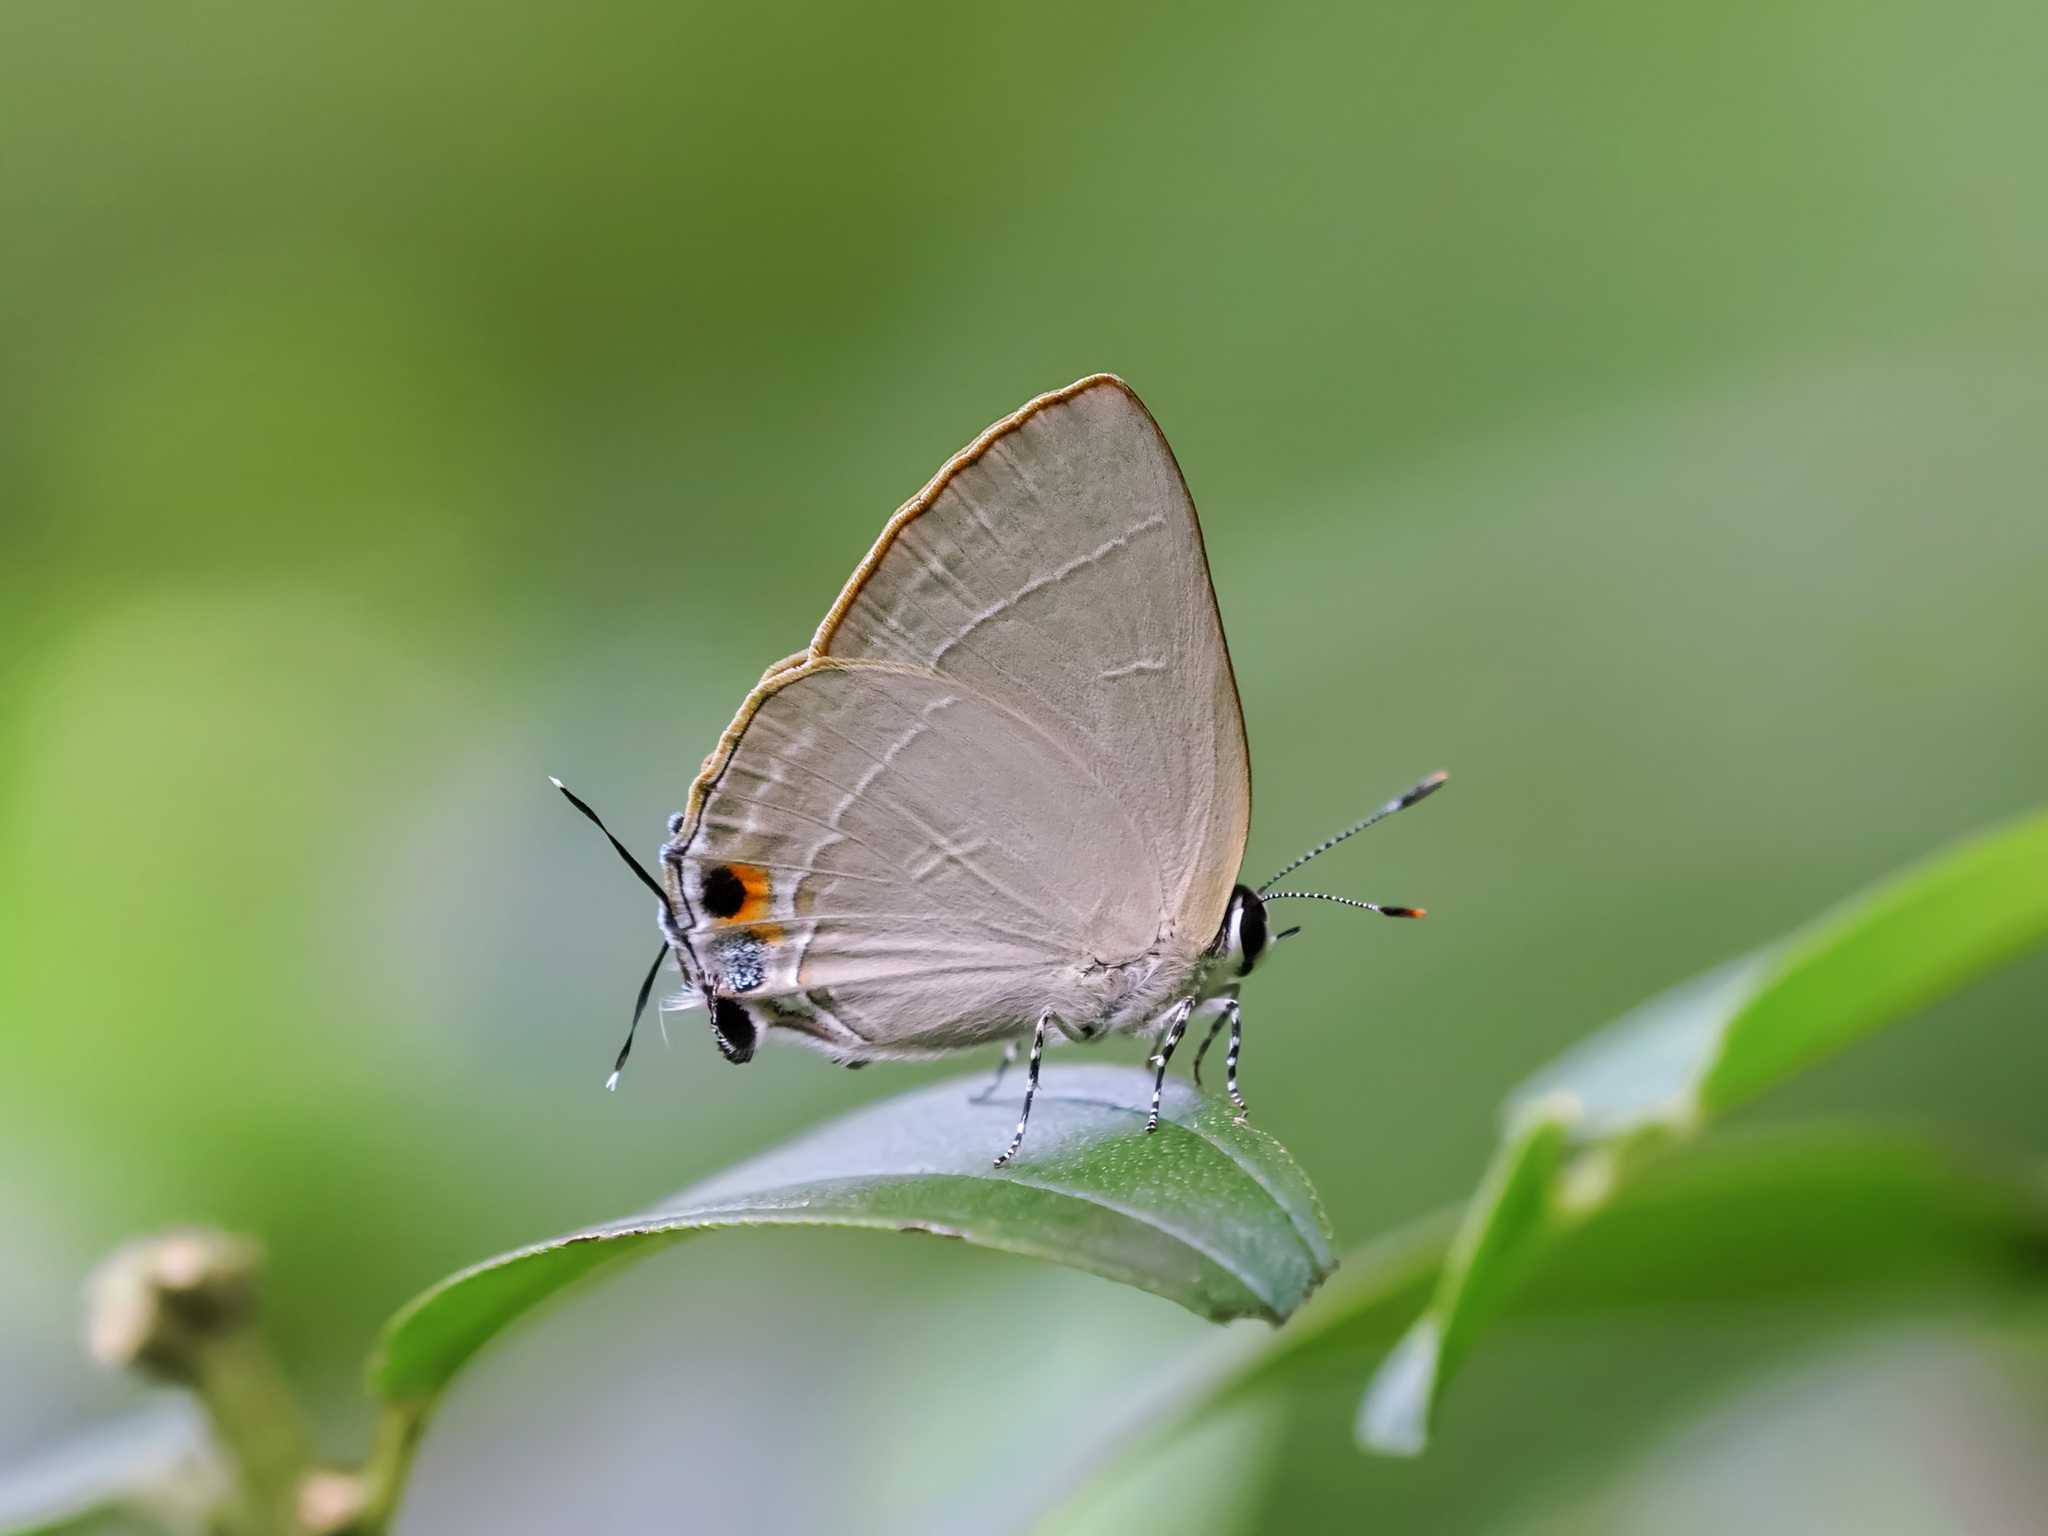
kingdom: Animalia
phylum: Arthropoda
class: Insecta
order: Lepidoptera
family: Lycaenidae
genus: Rapala
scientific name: Rapala iarbus
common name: Common red flash
